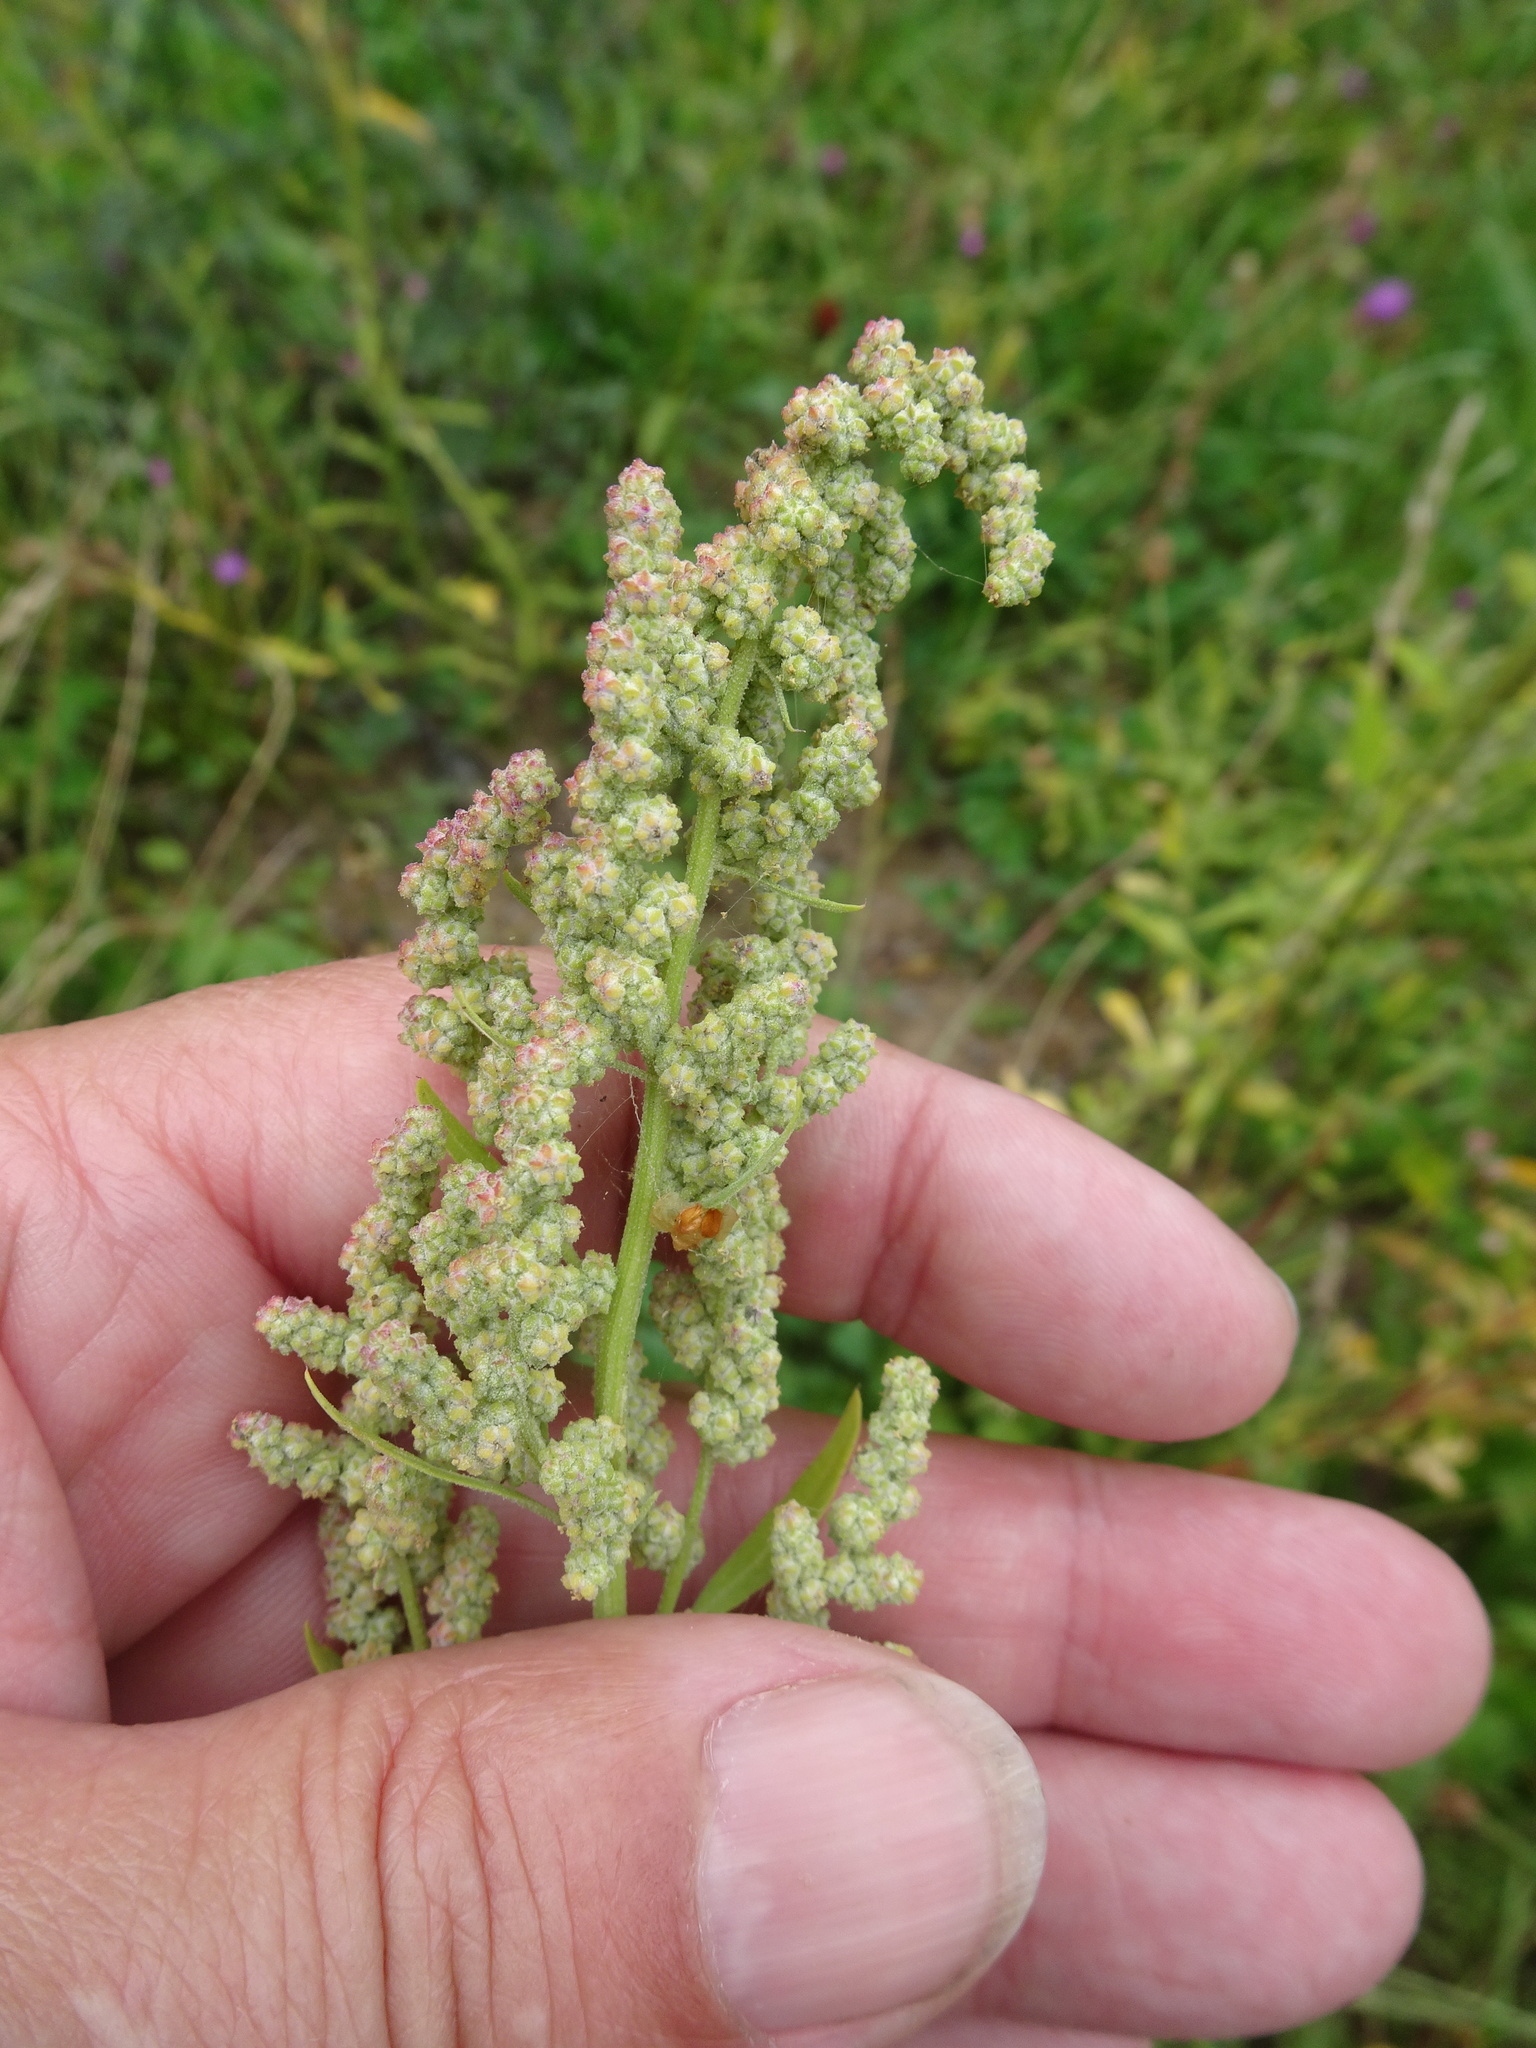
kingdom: Plantae
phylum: Tracheophyta
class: Magnoliopsida
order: Caryophyllales
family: Amaranthaceae
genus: Chenopodium
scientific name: Chenopodium album
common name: Fat-hen
